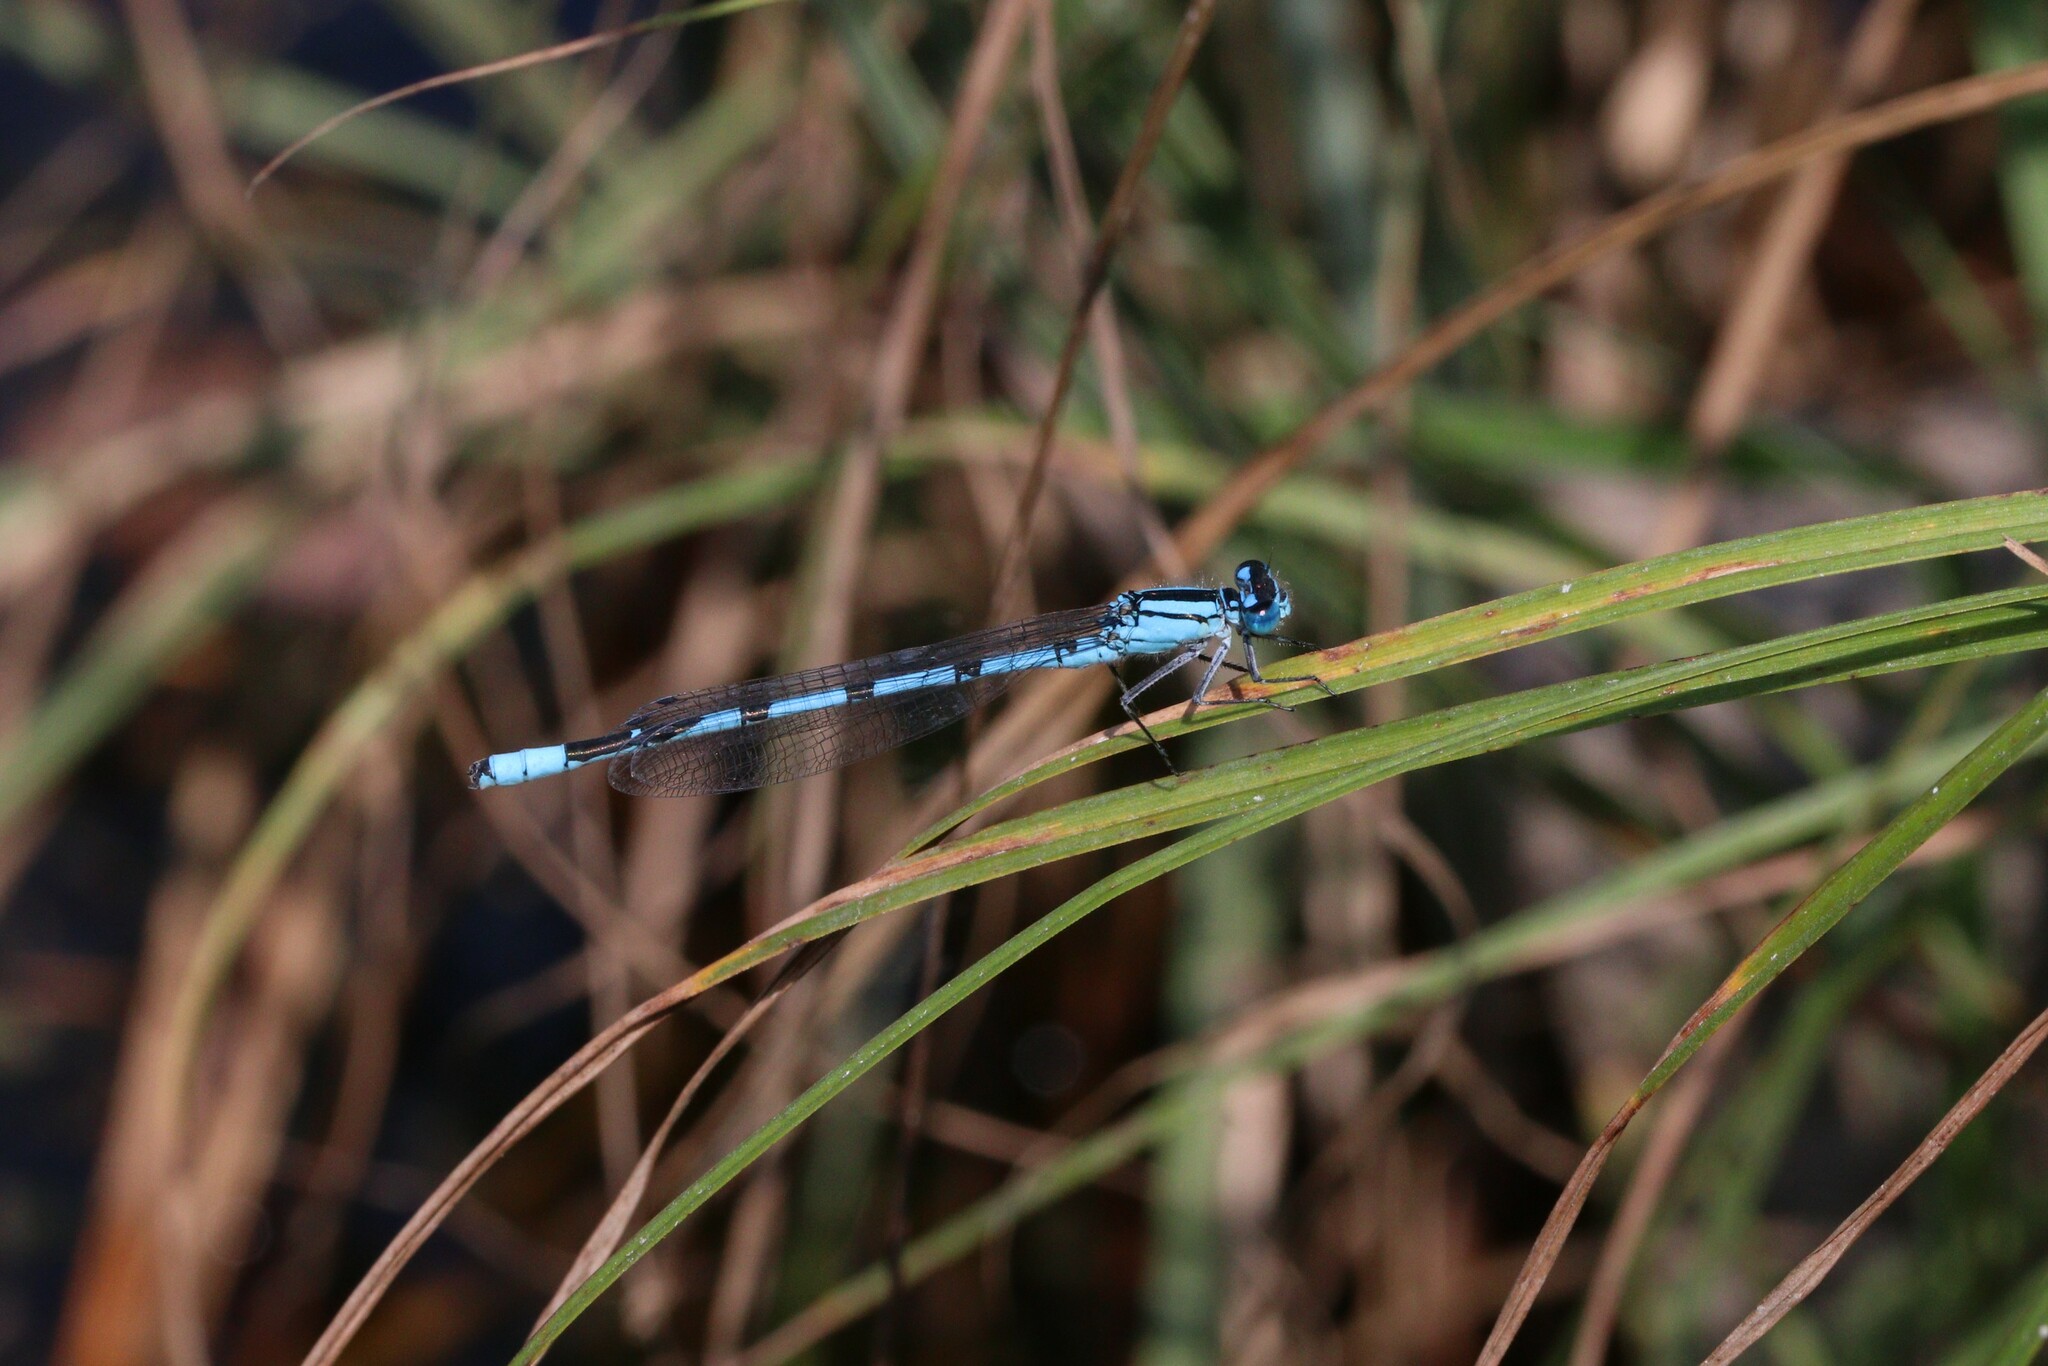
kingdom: Animalia
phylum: Arthropoda
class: Insecta
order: Odonata
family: Coenagrionidae
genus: Enallagma
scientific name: Enallagma cyathigerum
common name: Common blue damselfly
